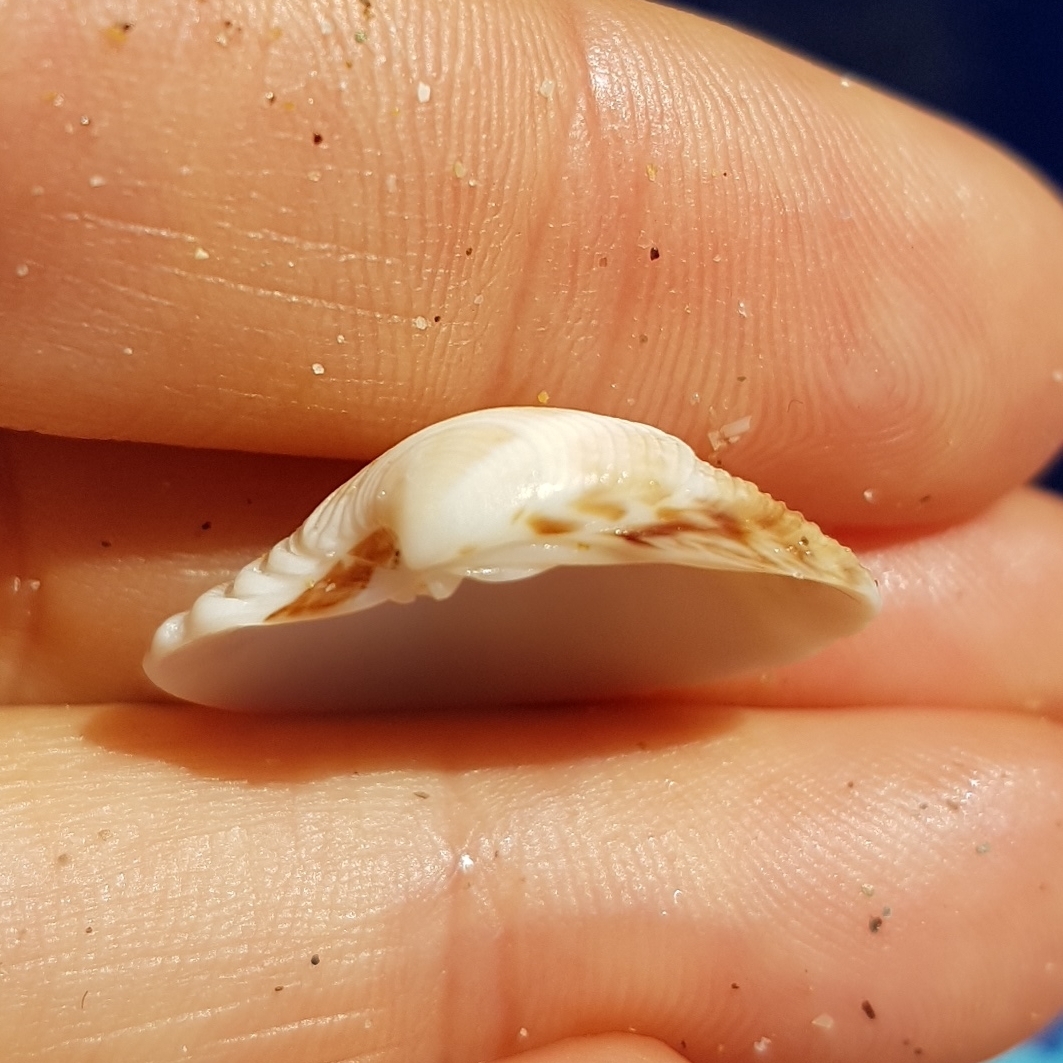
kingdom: Animalia
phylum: Mollusca
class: Bivalvia
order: Venerida
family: Veneridae
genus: Chamelea
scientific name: Chamelea gallina
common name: Chicken venus
